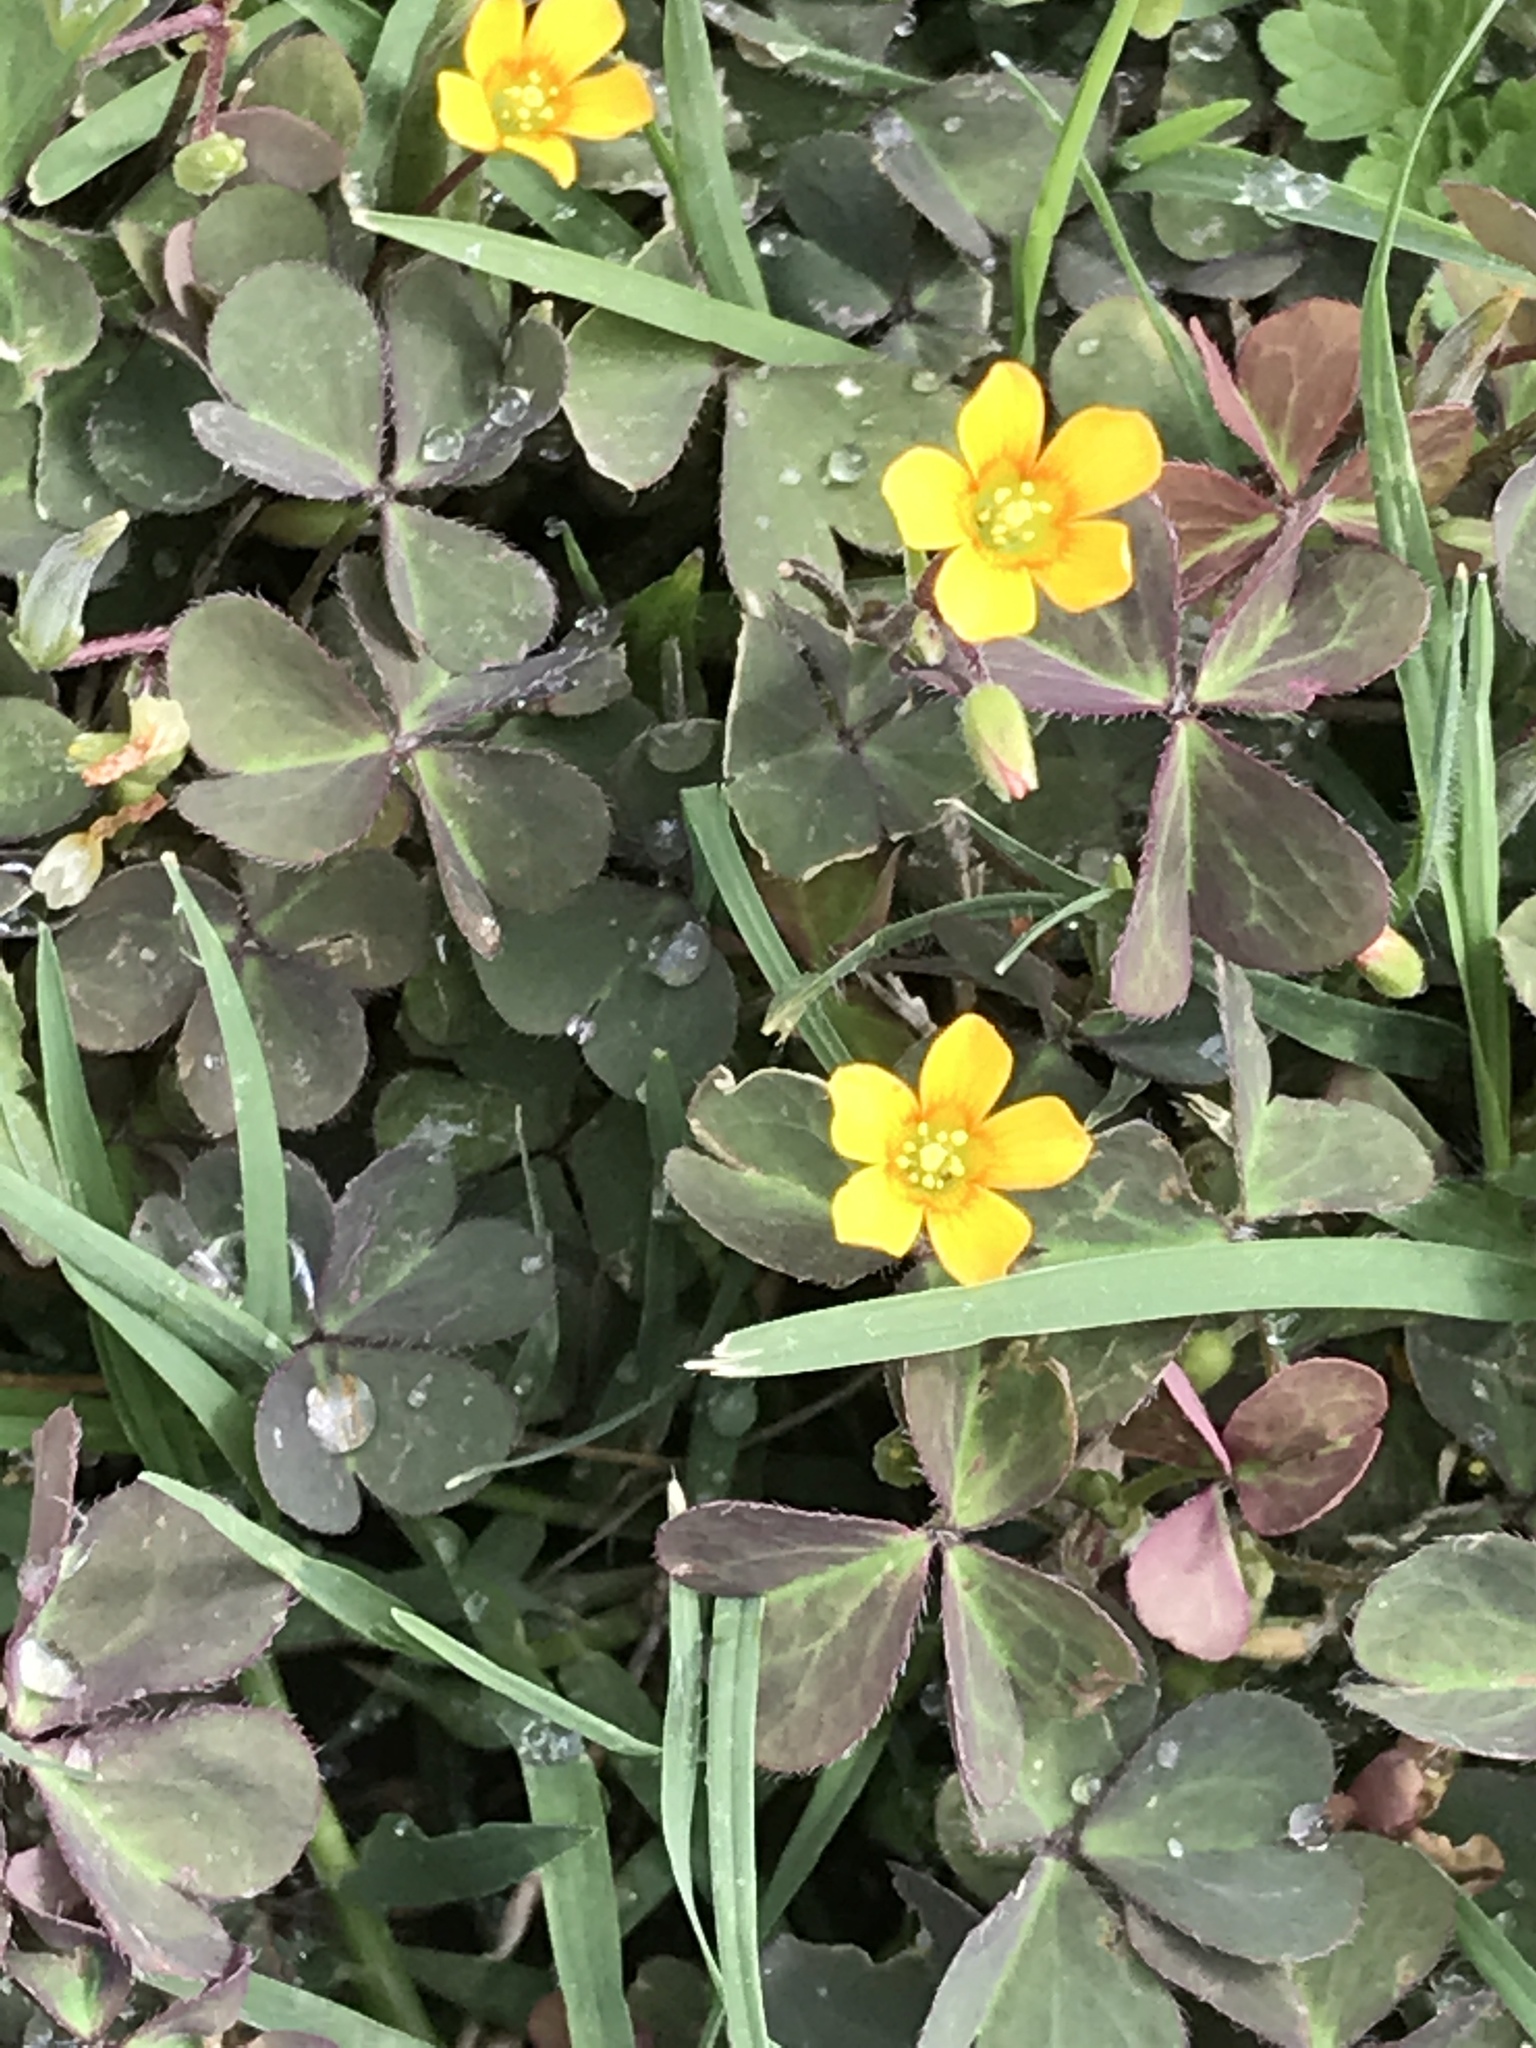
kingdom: Plantae
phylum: Tracheophyta
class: Magnoliopsida
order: Oxalidales
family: Oxalidaceae
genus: Oxalis
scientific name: Oxalis corniculata
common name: Procumbent yellow-sorrel
